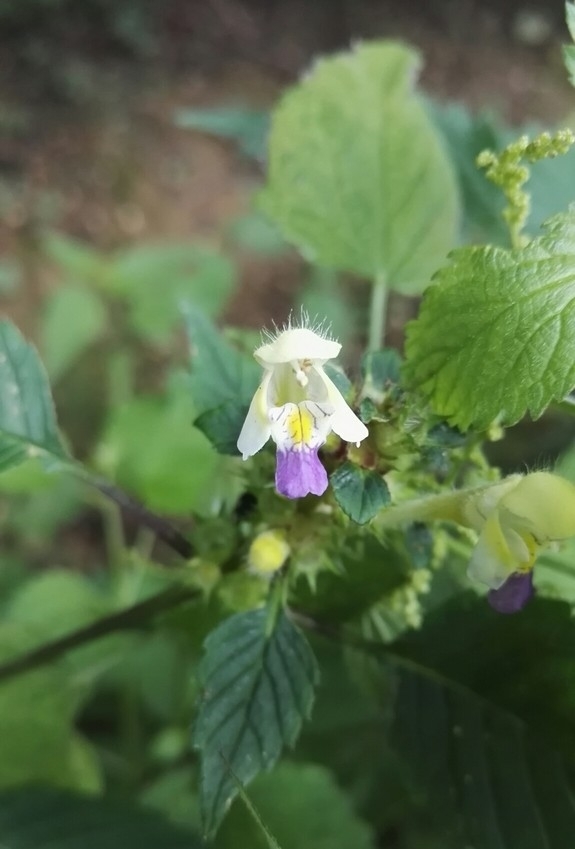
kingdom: Plantae
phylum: Tracheophyta
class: Magnoliopsida
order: Lamiales
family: Lamiaceae
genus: Galeopsis
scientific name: Galeopsis speciosa
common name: Large-flowered hemp-nettle
